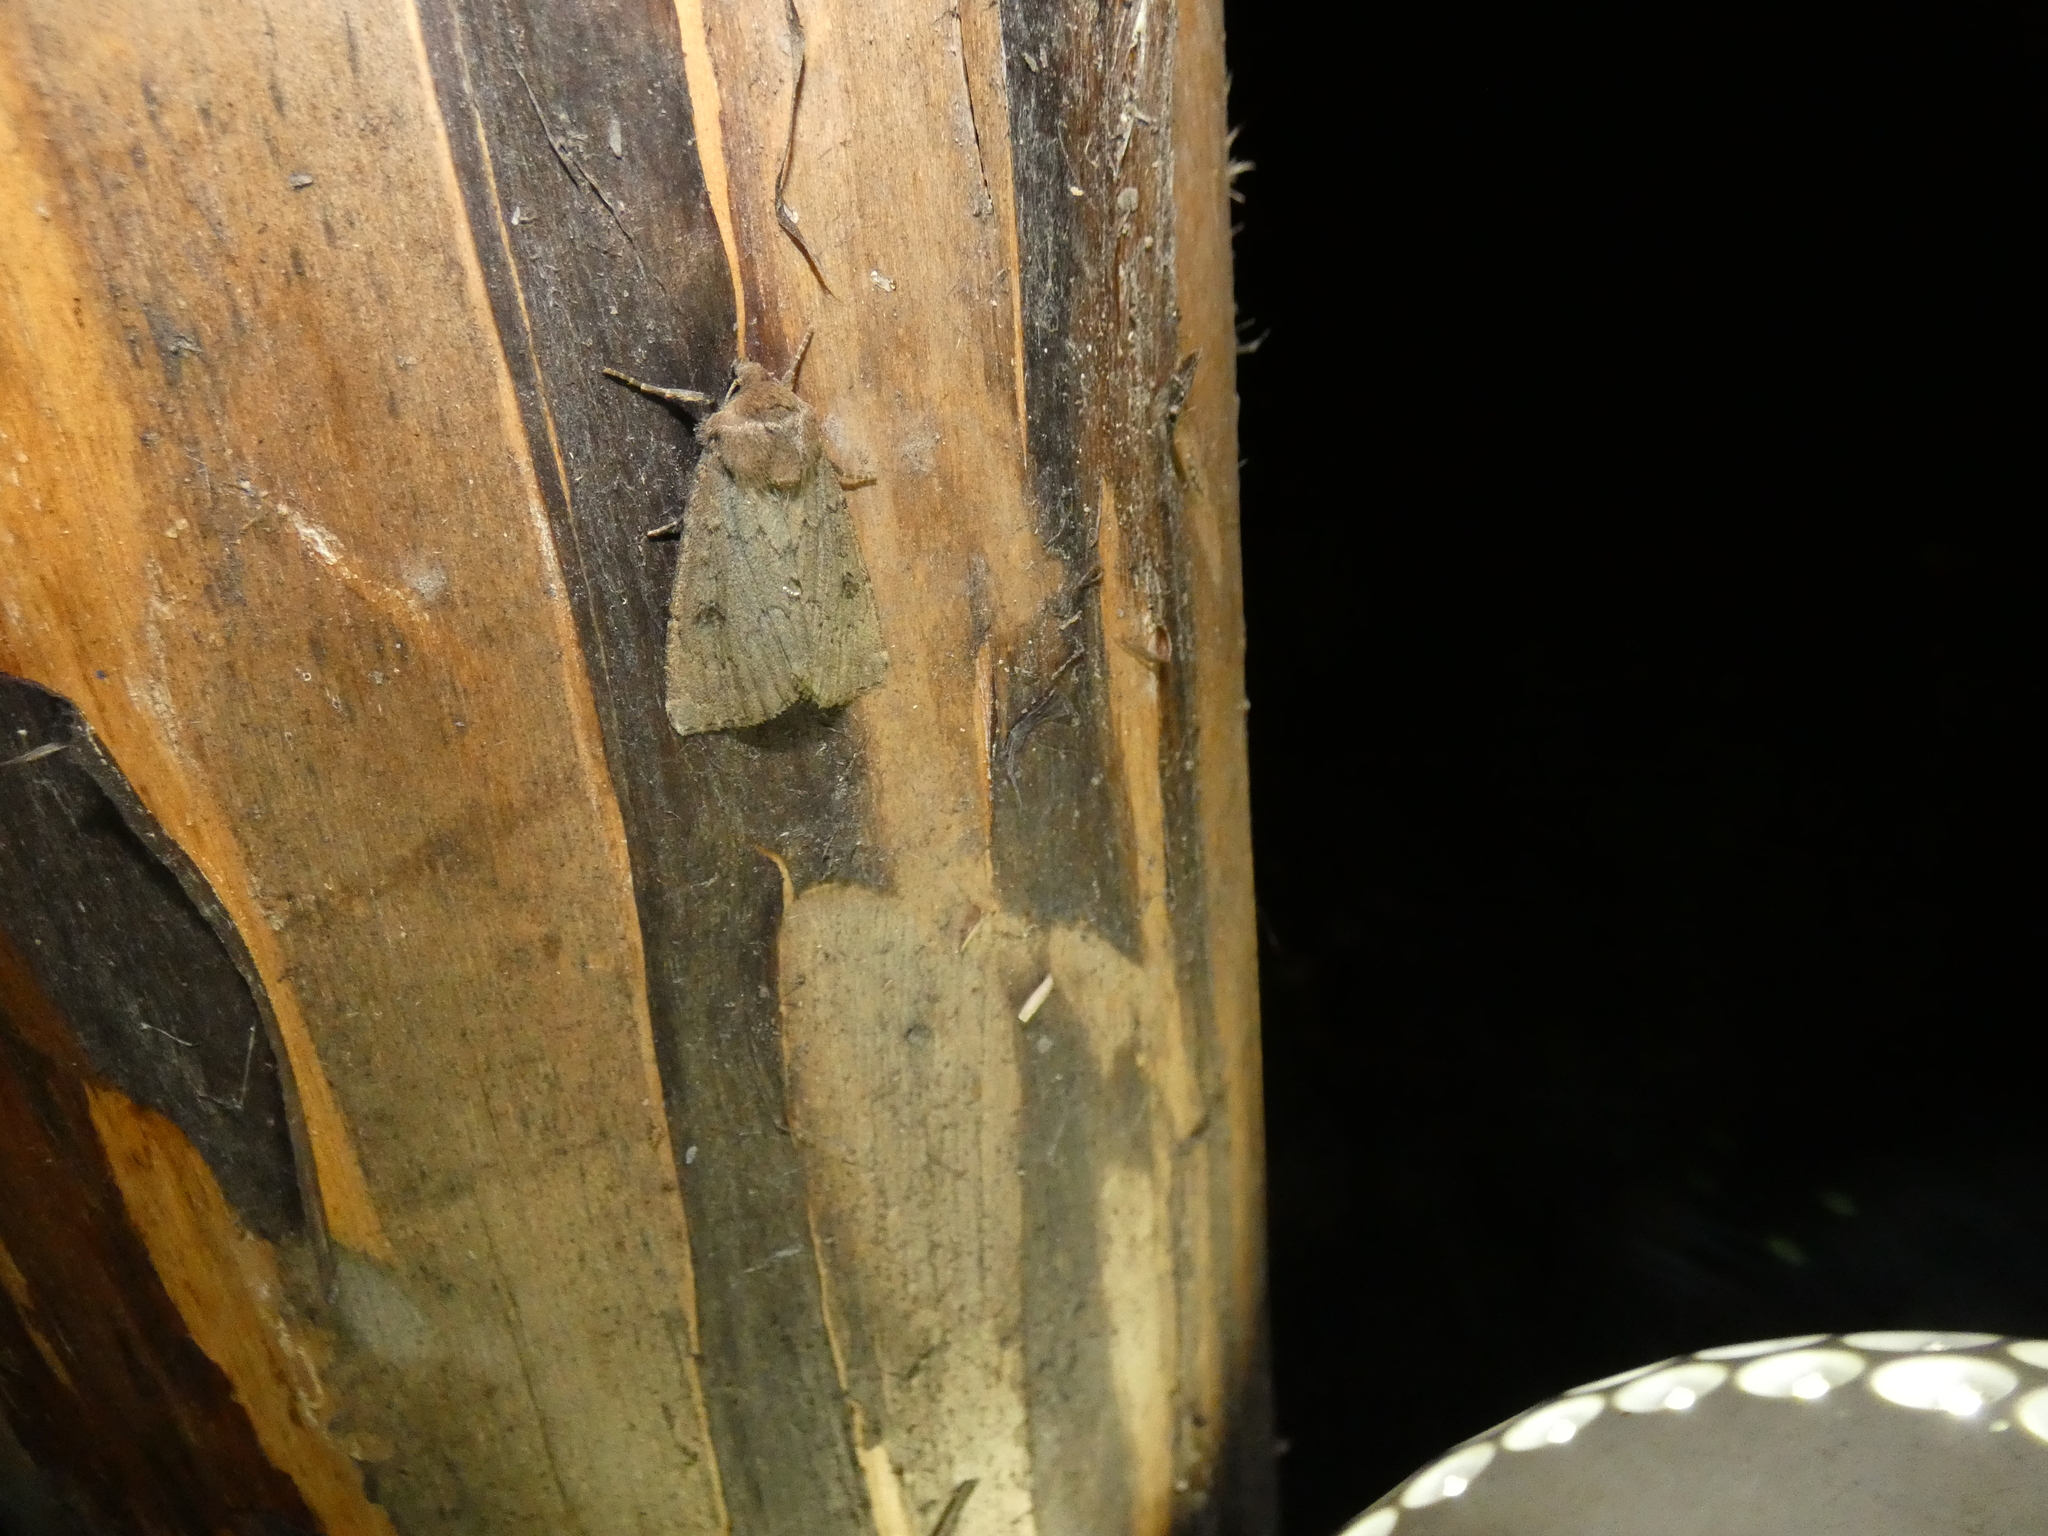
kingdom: Animalia
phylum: Arthropoda
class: Insecta
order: Lepidoptera
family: Noctuidae
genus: Graphiphora
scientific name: Graphiphora augur
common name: Double dart
